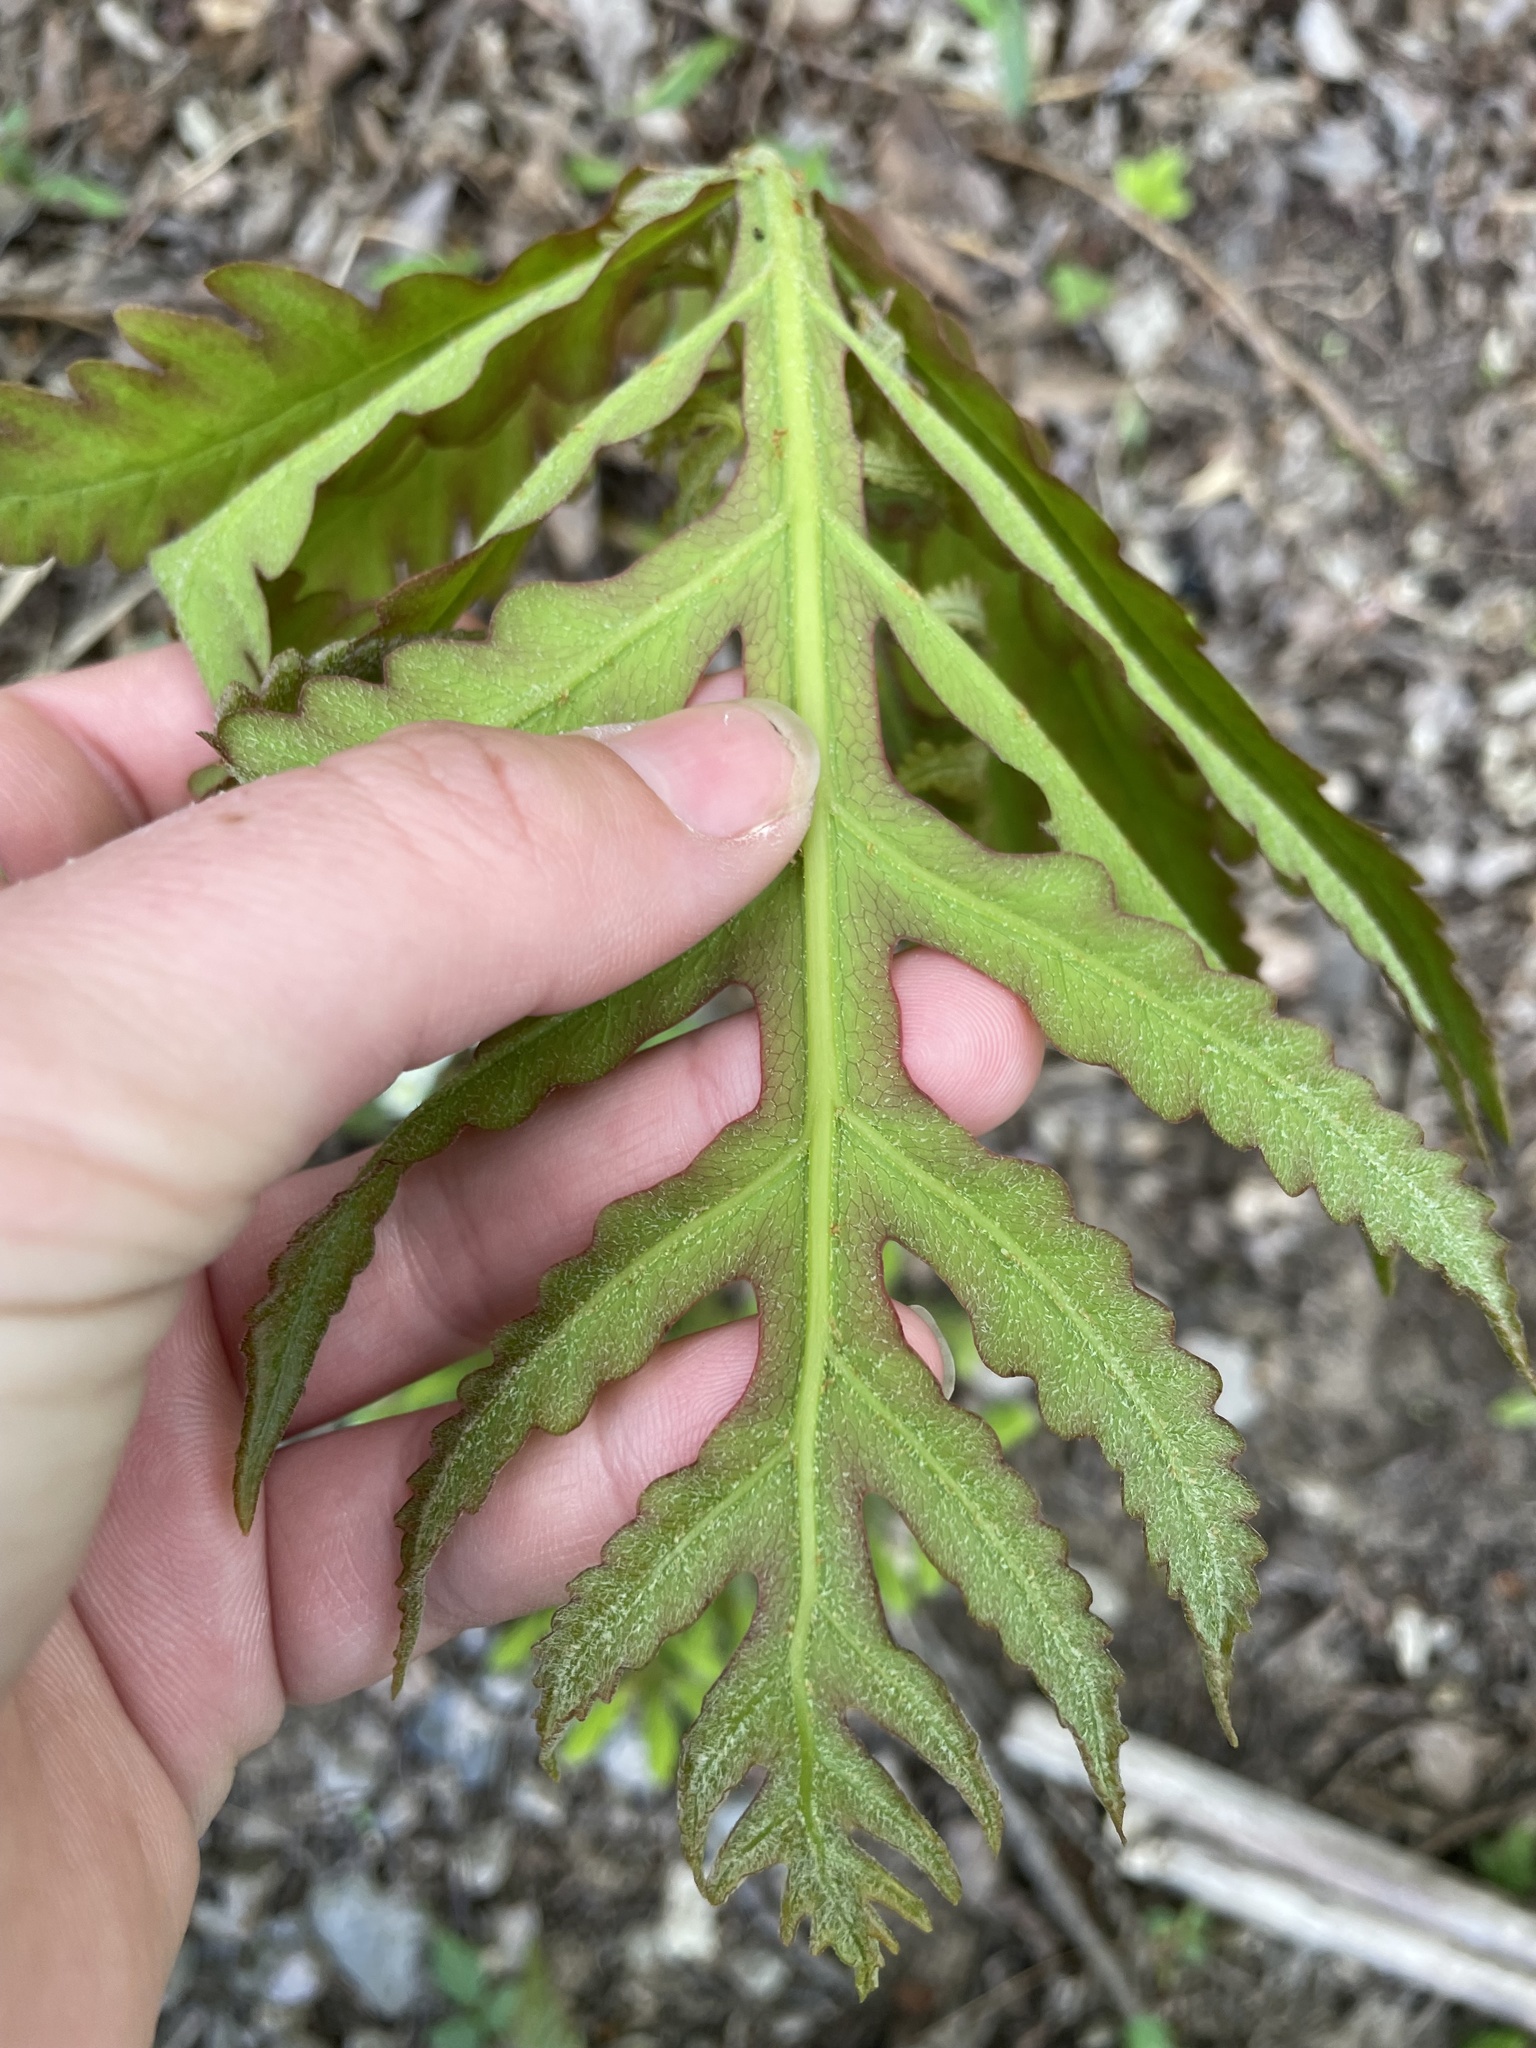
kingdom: Plantae
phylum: Tracheophyta
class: Polypodiopsida
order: Polypodiales
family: Onocleaceae
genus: Onoclea
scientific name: Onoclea sensibilis
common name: Sensitive fern
